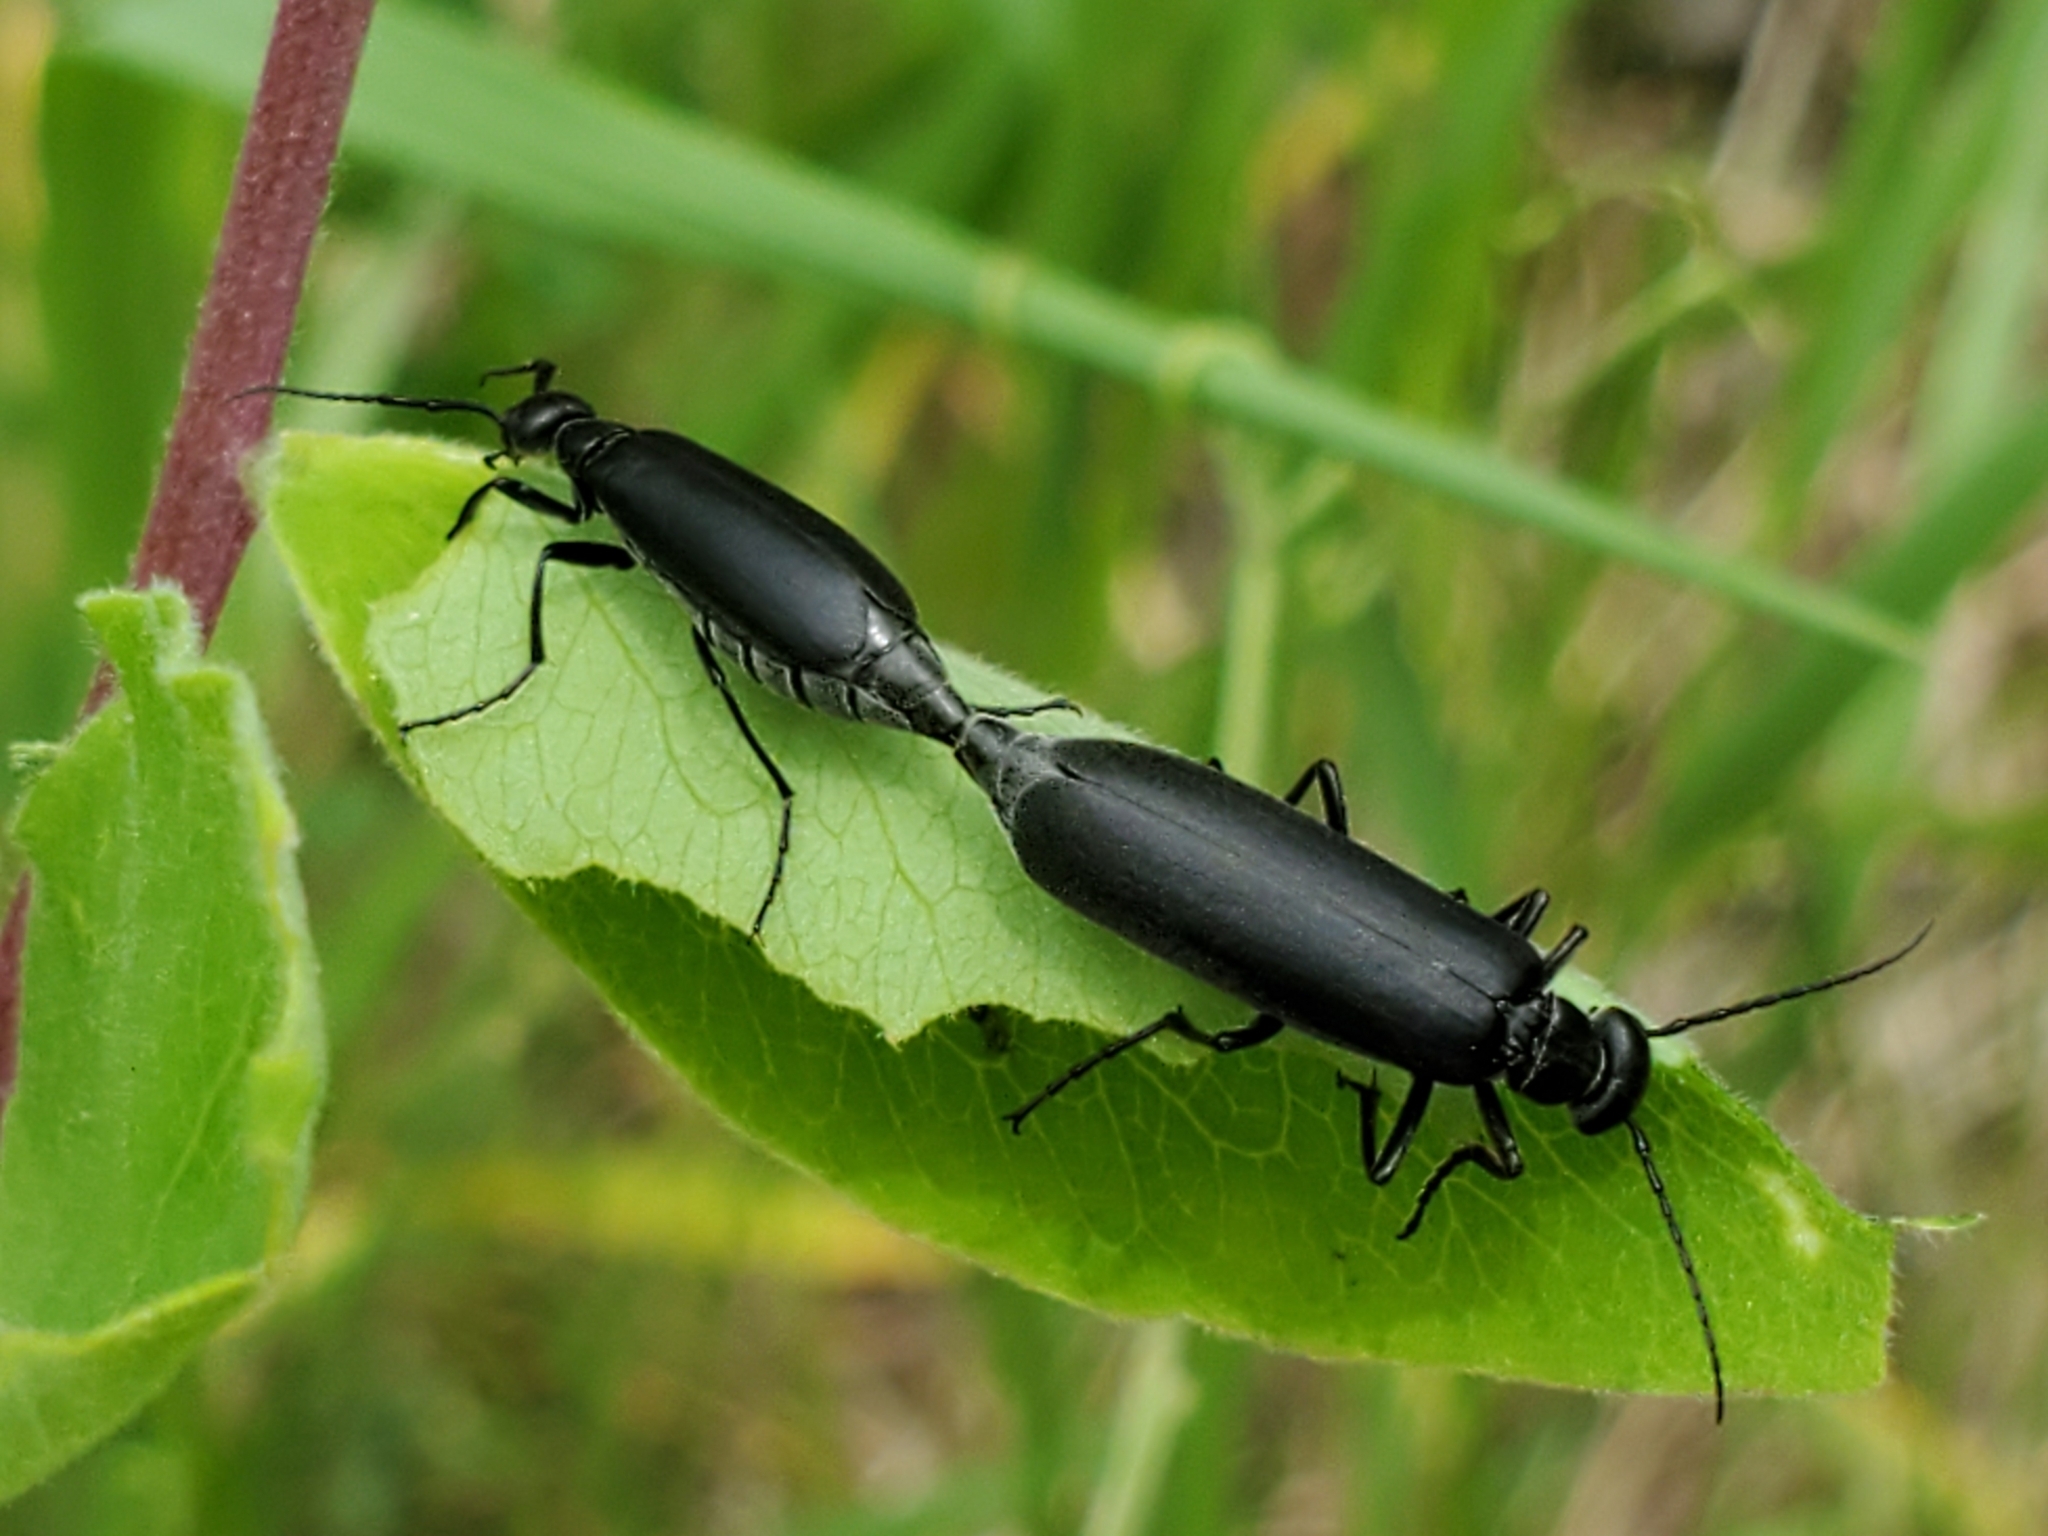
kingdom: Animalia
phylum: Arthropoda
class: Insecta
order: Coleoptera
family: Meloidae
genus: Epicauta
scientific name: Epicauta subglabra
